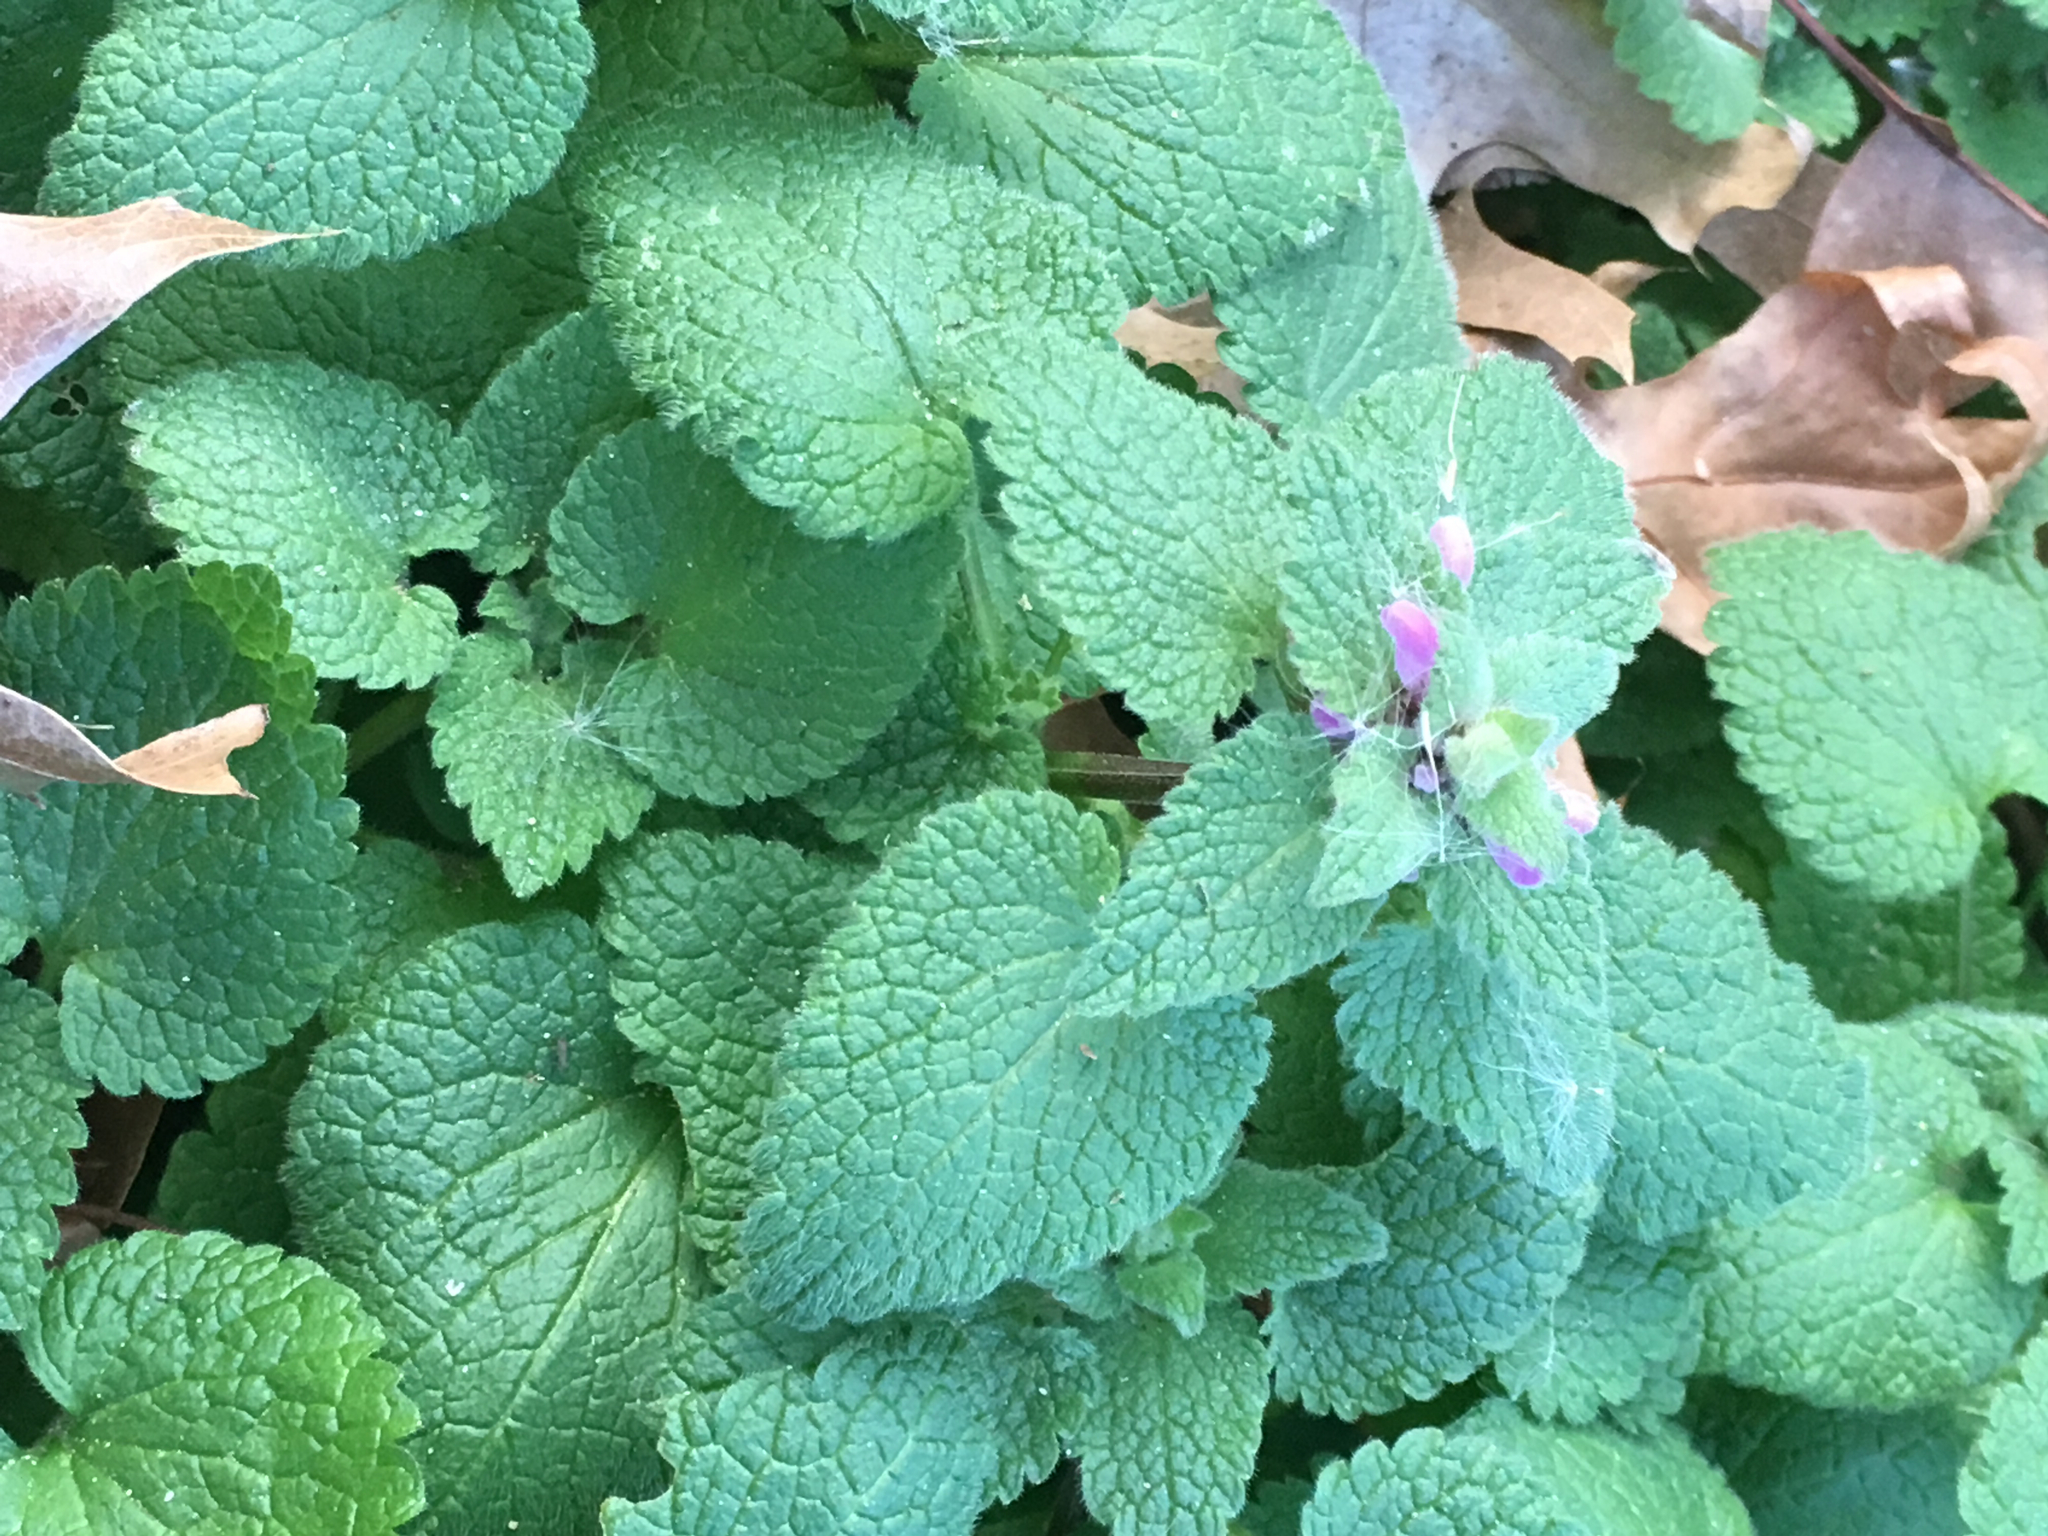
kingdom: Plantae
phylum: Tracheophyta
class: Magnoliopsida
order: Lamiales
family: Lamiaceae
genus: Lamium
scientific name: Lamium purpureum
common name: Red dead-nettle
